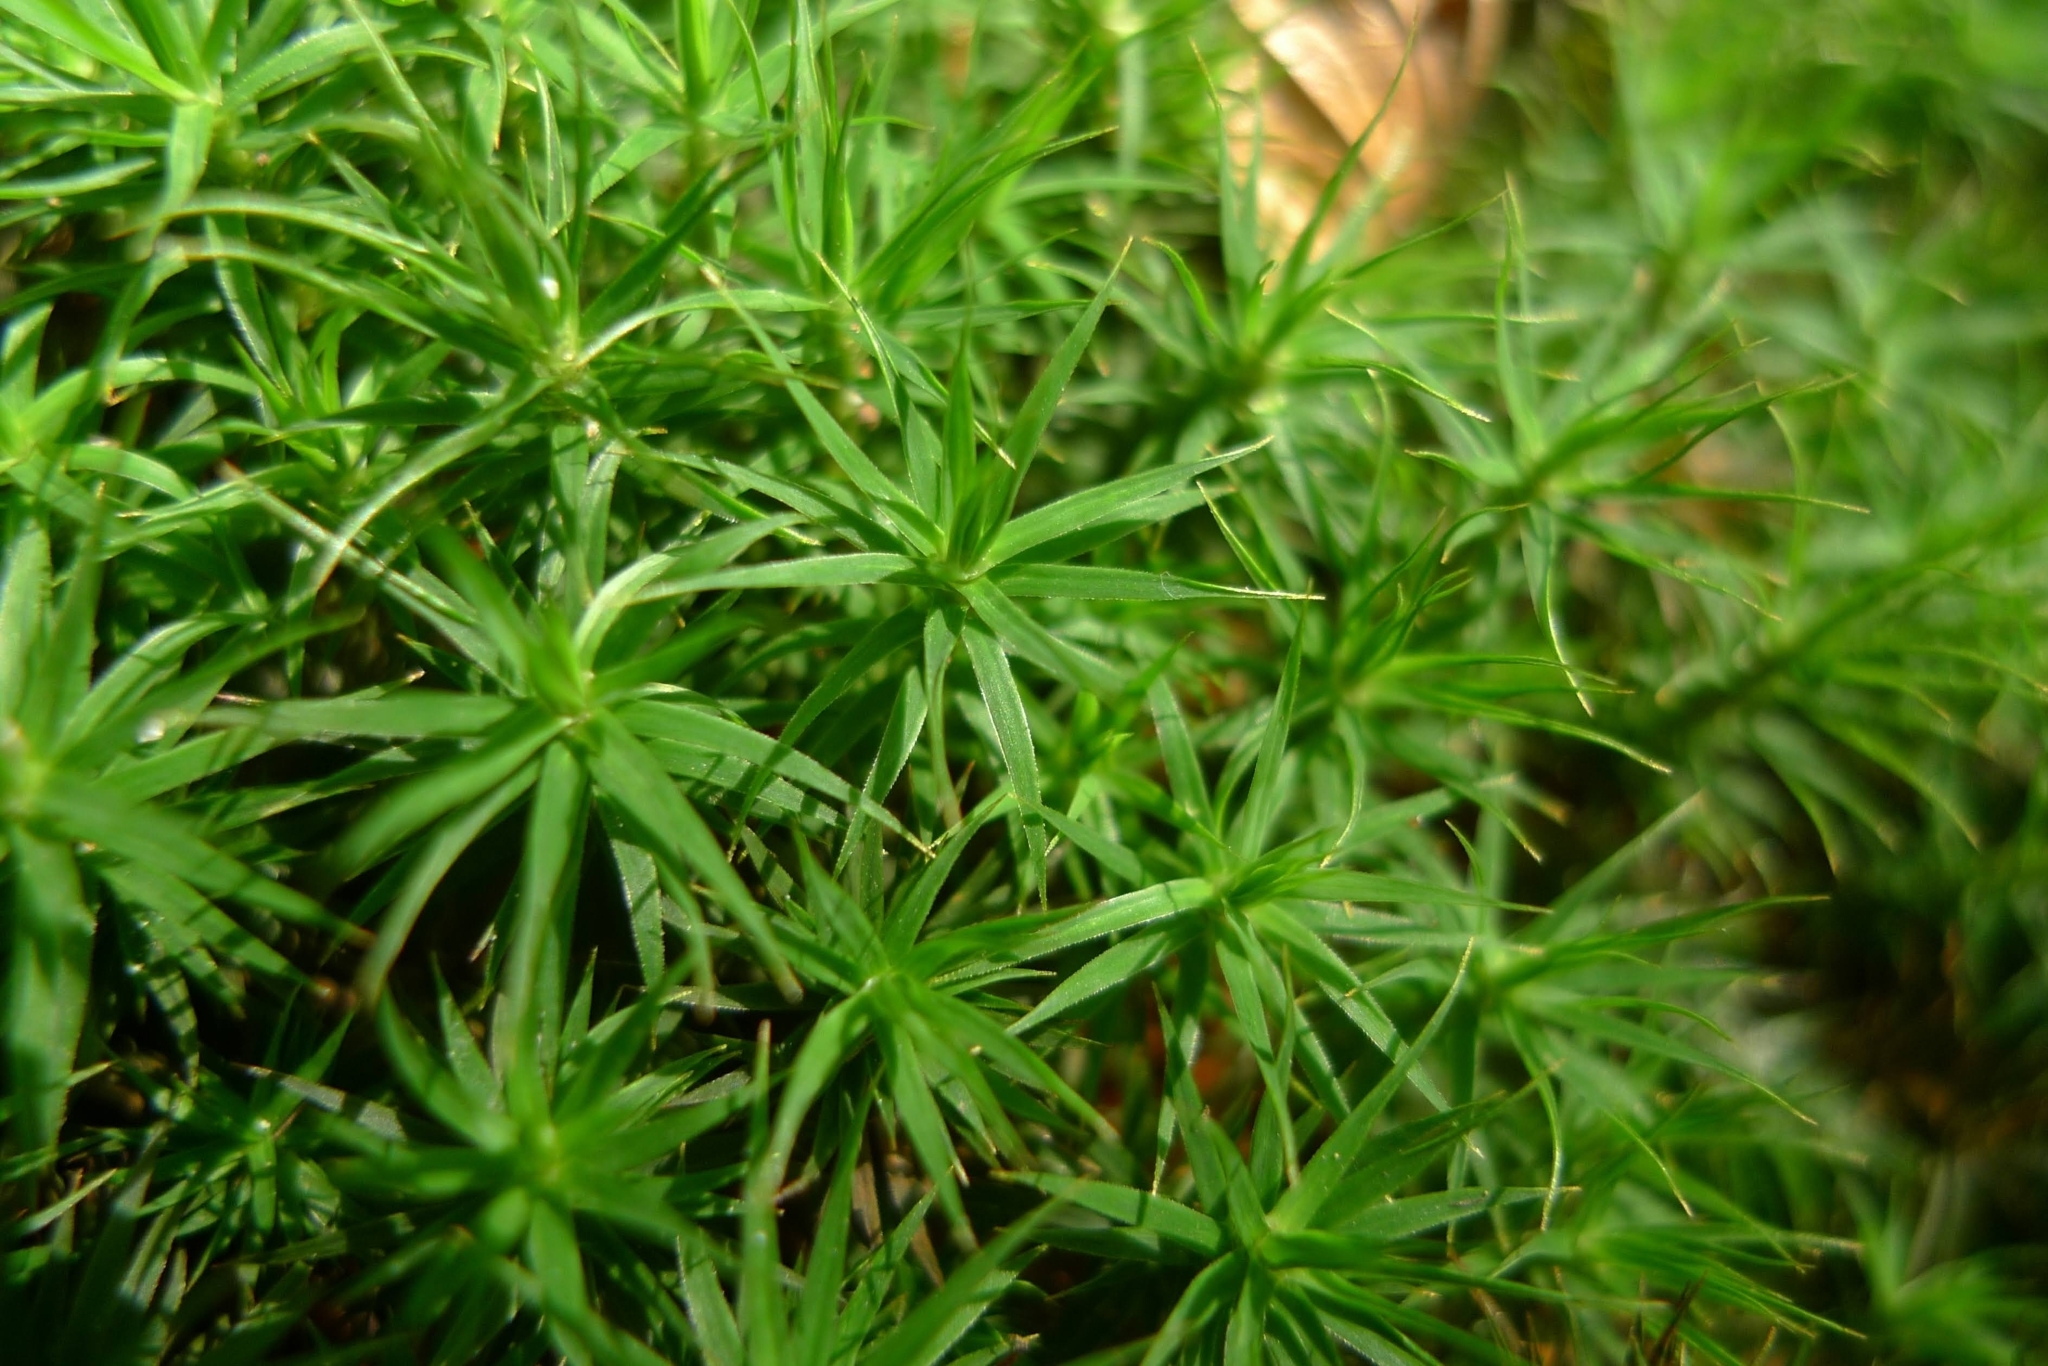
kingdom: Plantae
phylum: Bryophyta
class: Polytrichopsida
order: Polytrichales
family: Polytrichaceae
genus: Polytrichum
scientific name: Polytrichum formosum
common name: Bank haircap moss
